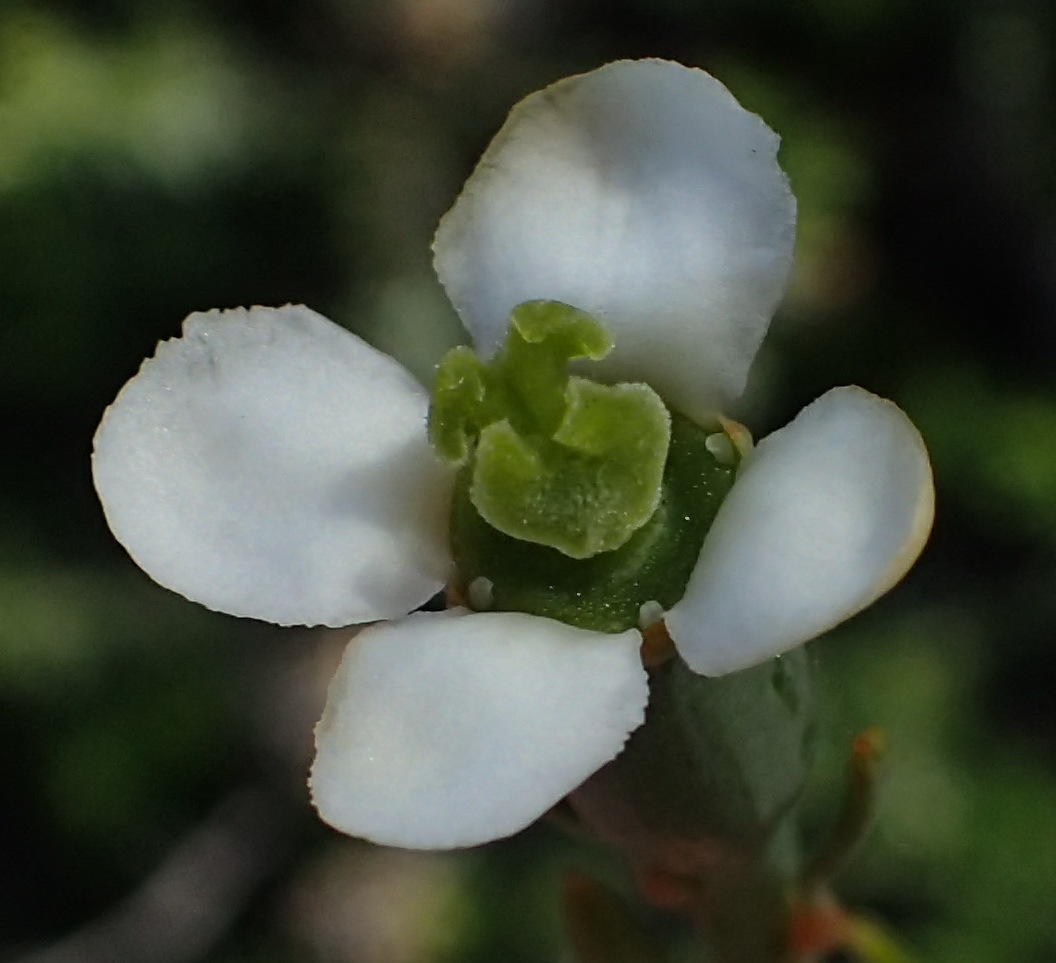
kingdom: Plantae
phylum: Tracheophyta
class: Magnoliopsida
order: Solanales
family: Montiniaceae
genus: Montinia
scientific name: Montinia caryophyllacea
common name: Wild clove-bush
